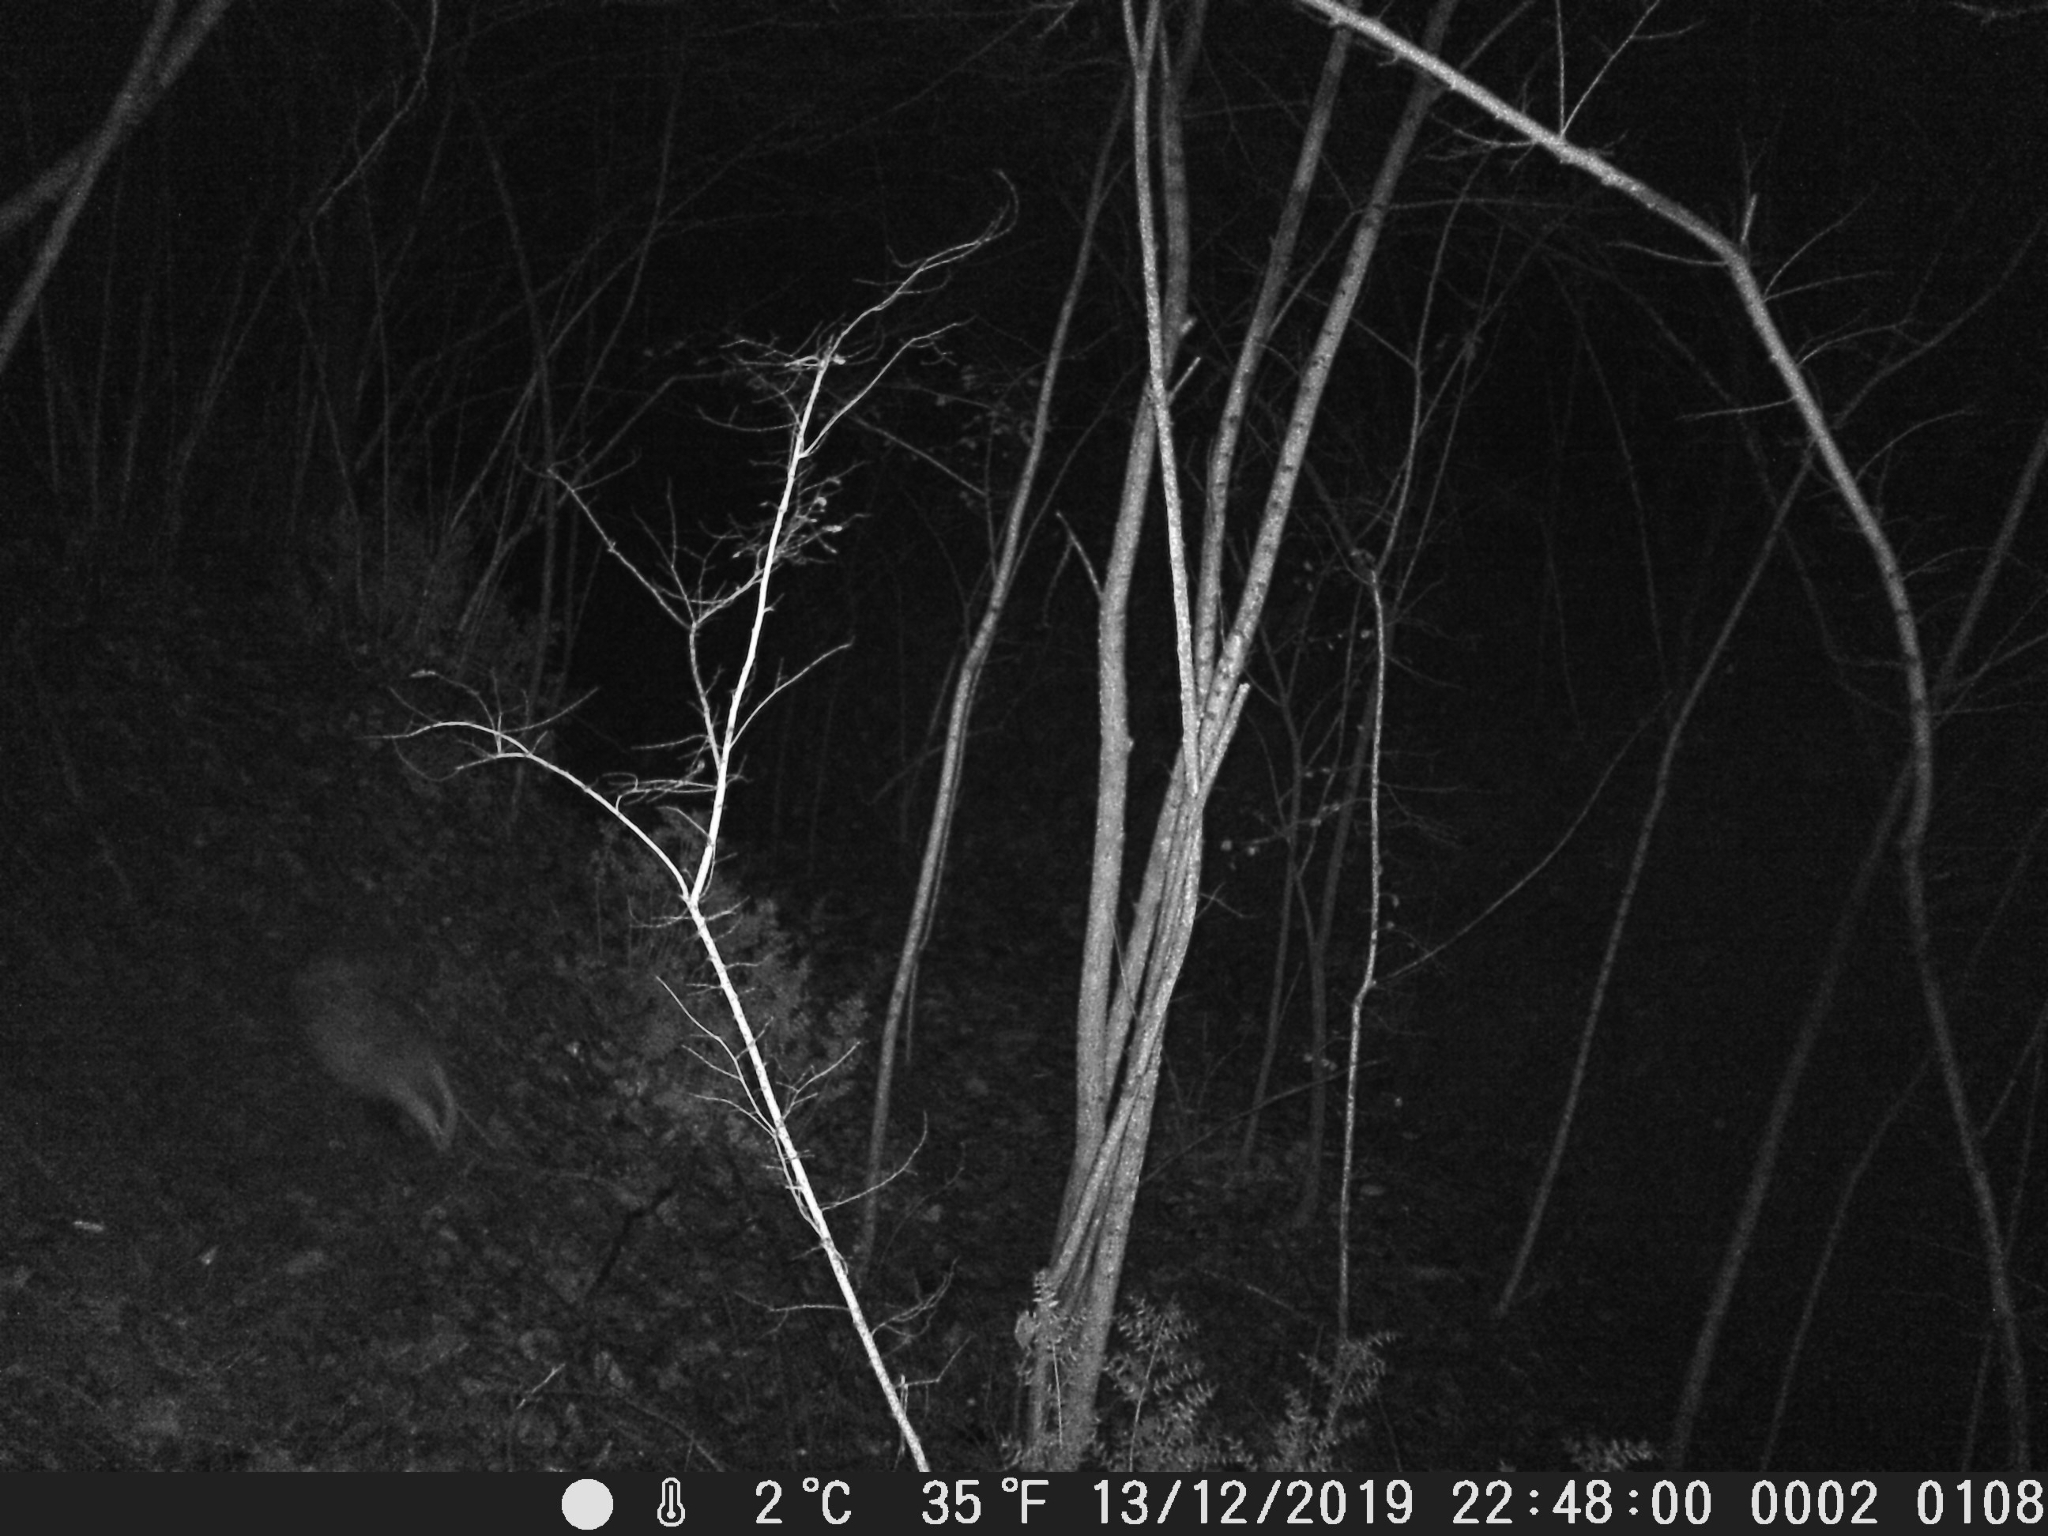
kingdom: Animalia
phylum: Chordata
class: Mammalia
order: Carnivora
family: Mustelidae
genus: Meles
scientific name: Meles meles
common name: Eurasian badger
